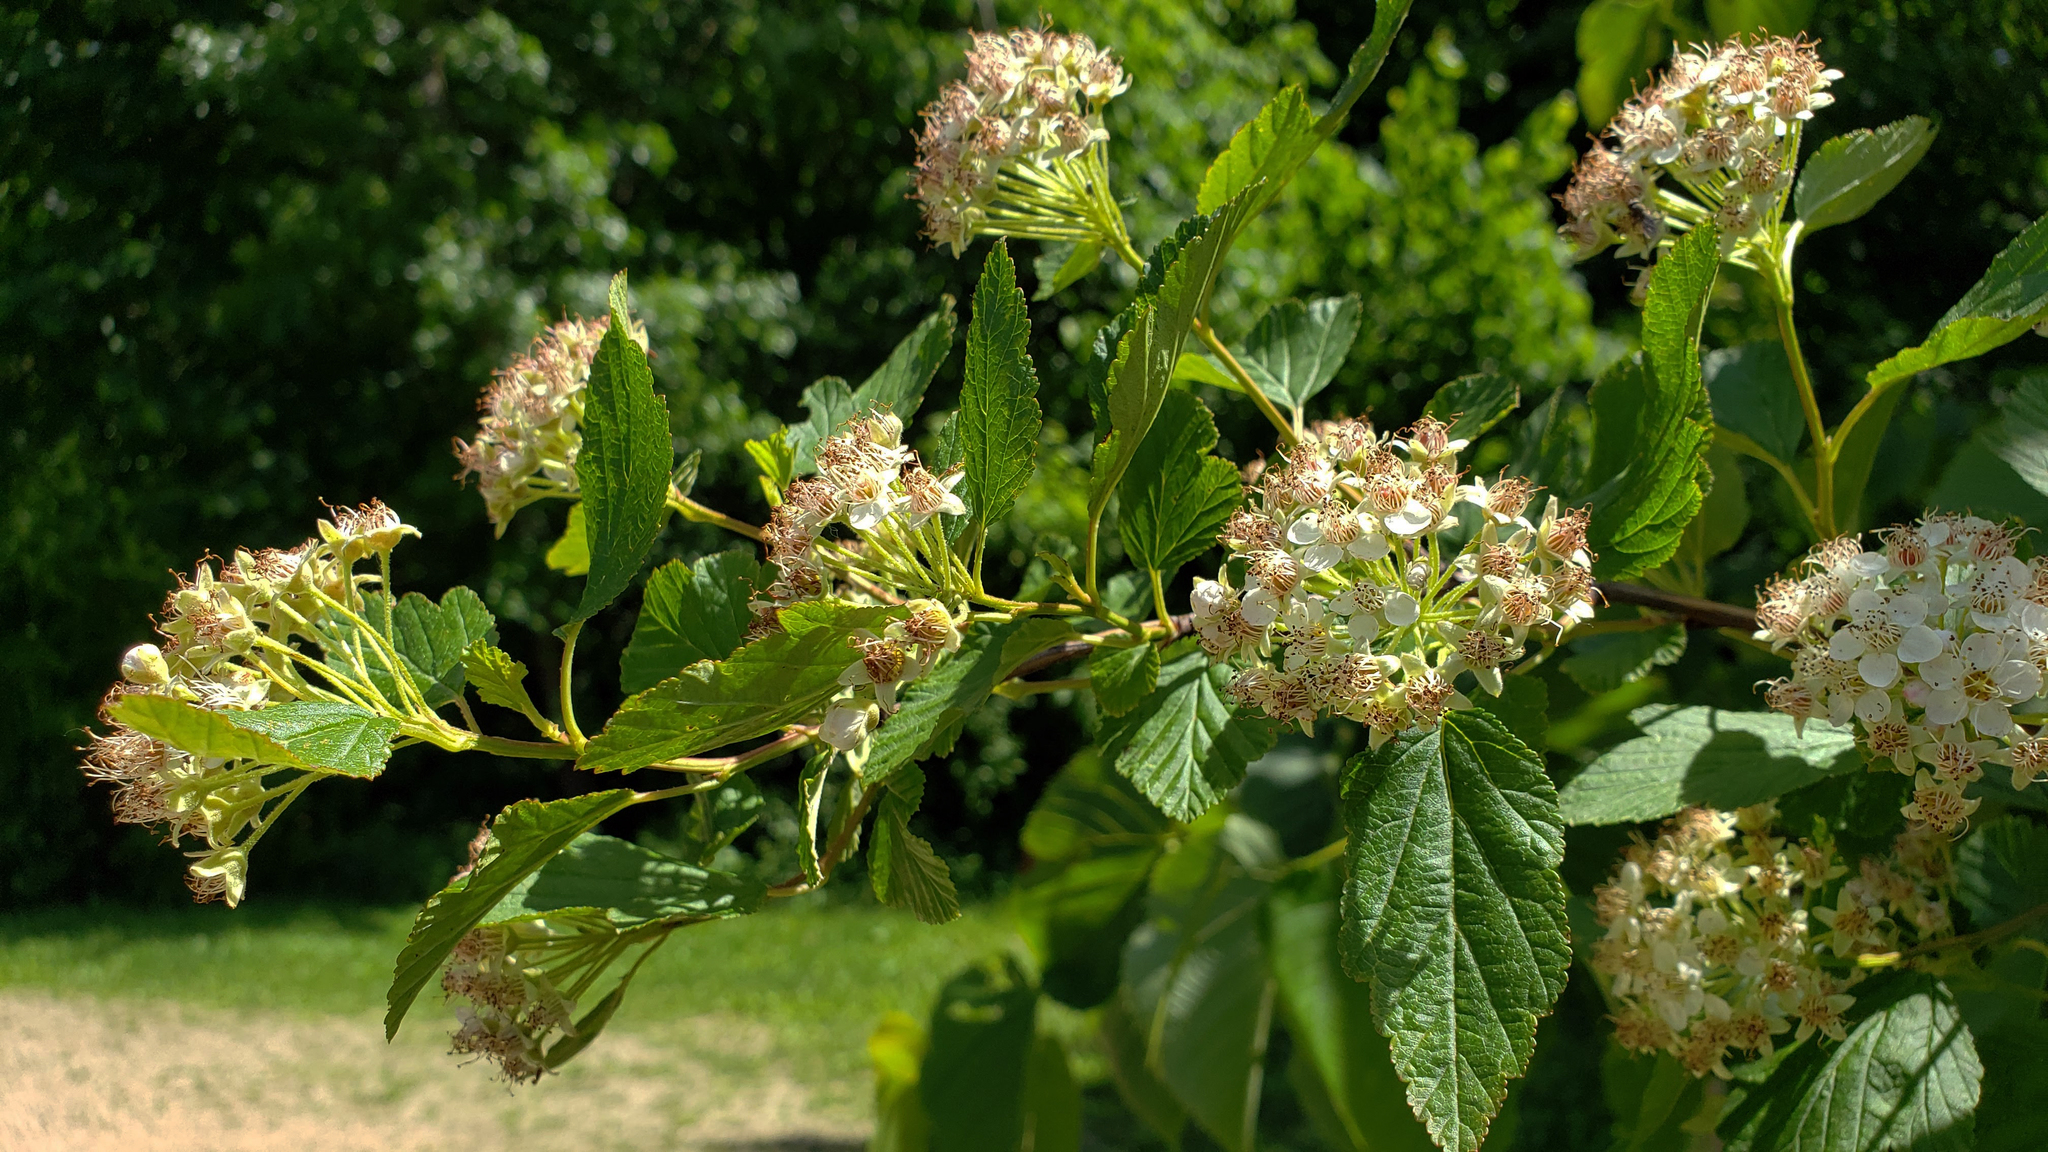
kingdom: Plantae
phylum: Tracheophyta
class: Magnoliopsida
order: Rosales
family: Rosaceae
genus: Physocarpus
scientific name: Physocarpus opulifolius
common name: Ninebark
